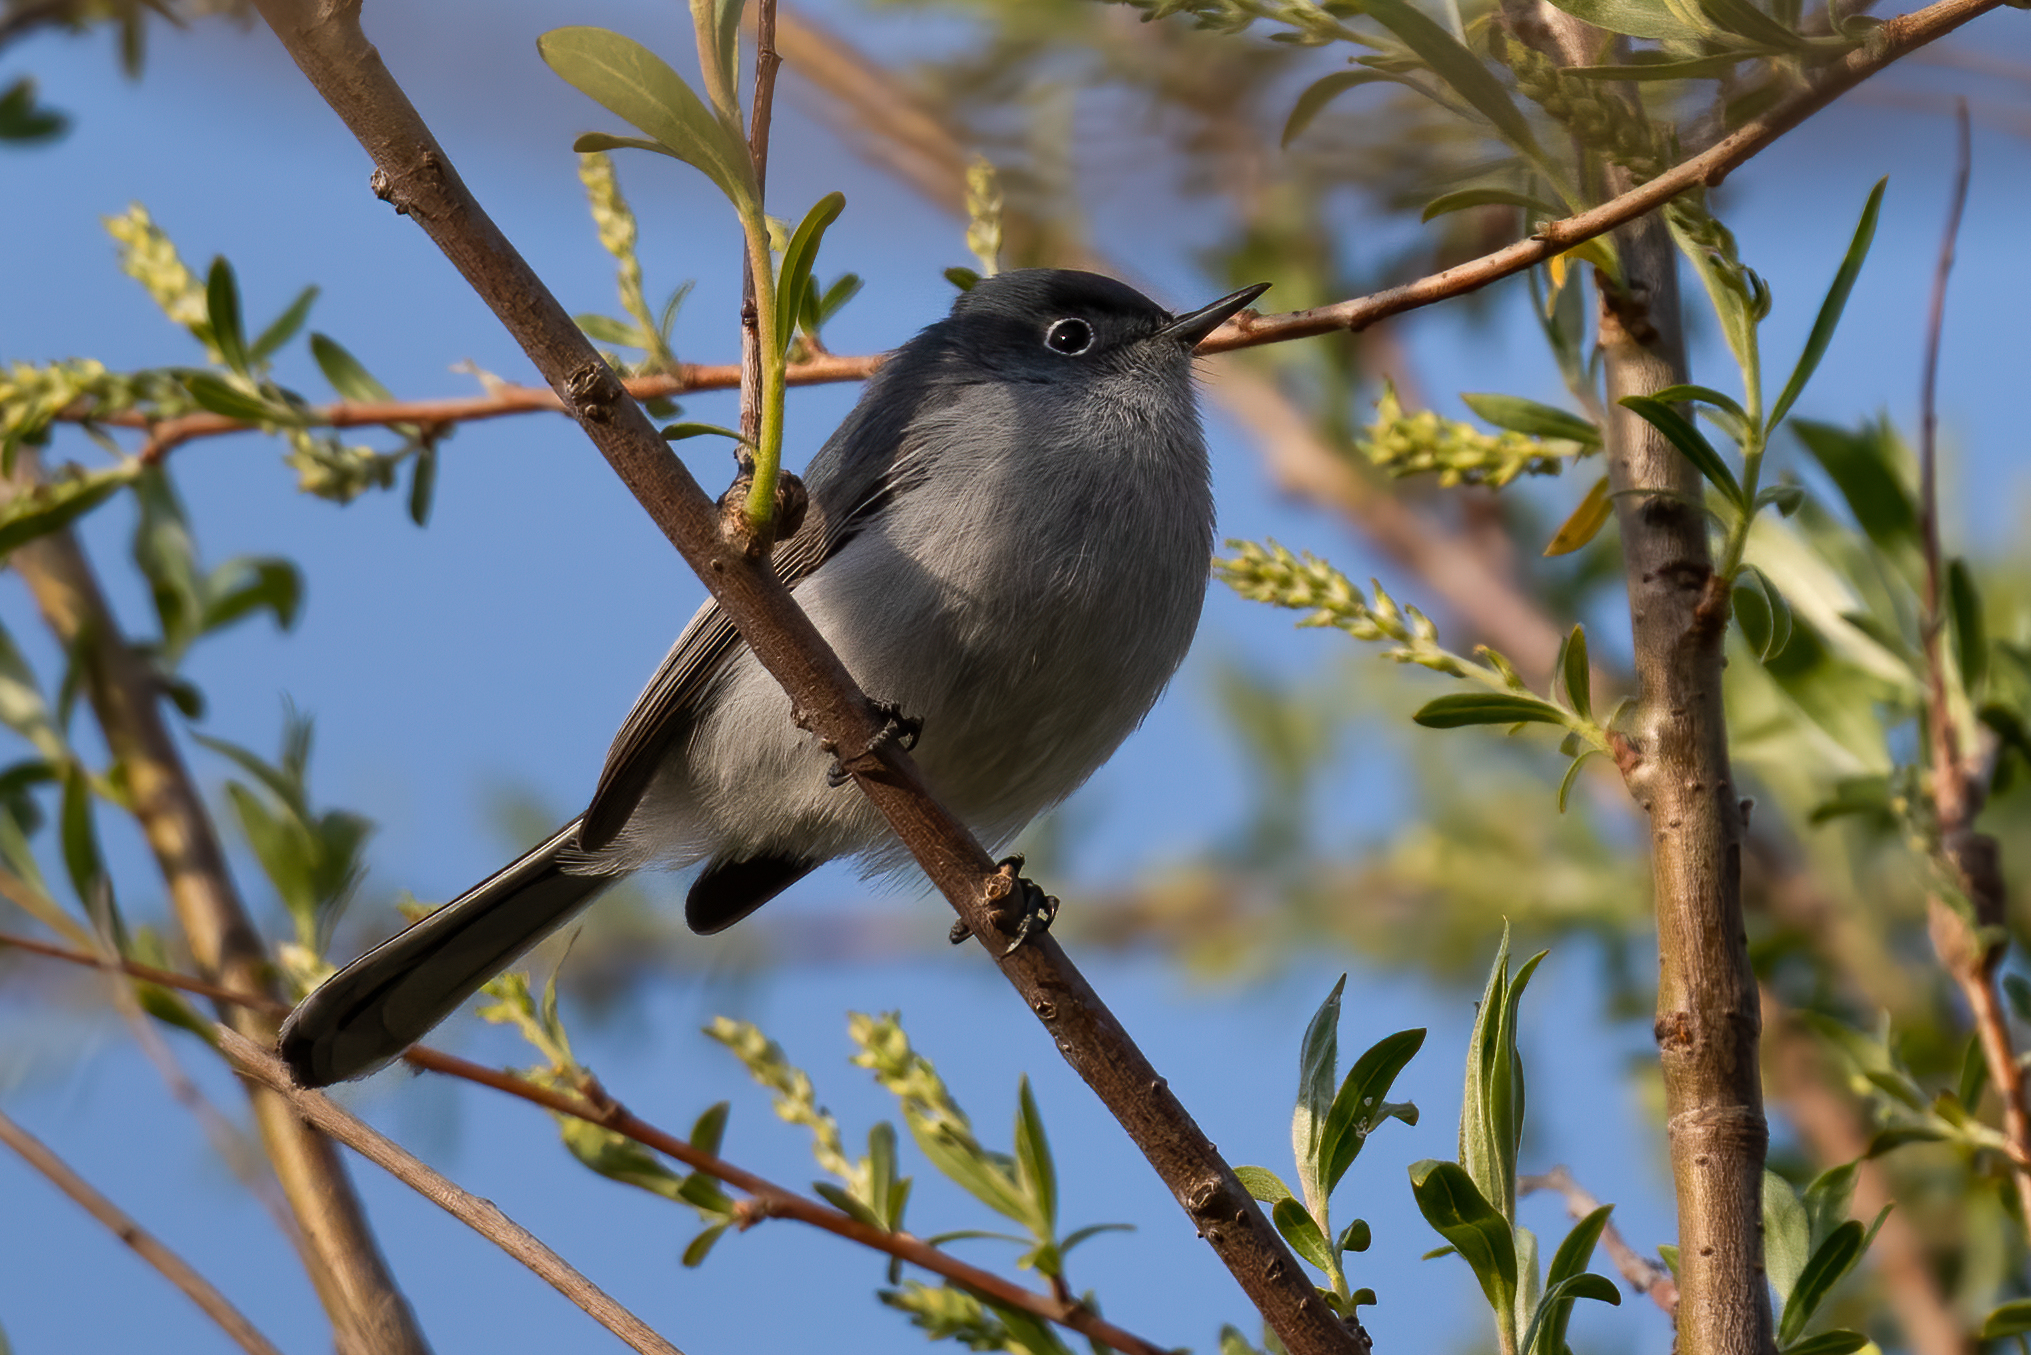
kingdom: Animalia
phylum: Chordata
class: Aves
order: Passeriformes
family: Polioptilidae
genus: Polioptila
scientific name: Polioptila caerulea
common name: Blue-gray gnatcatcher
